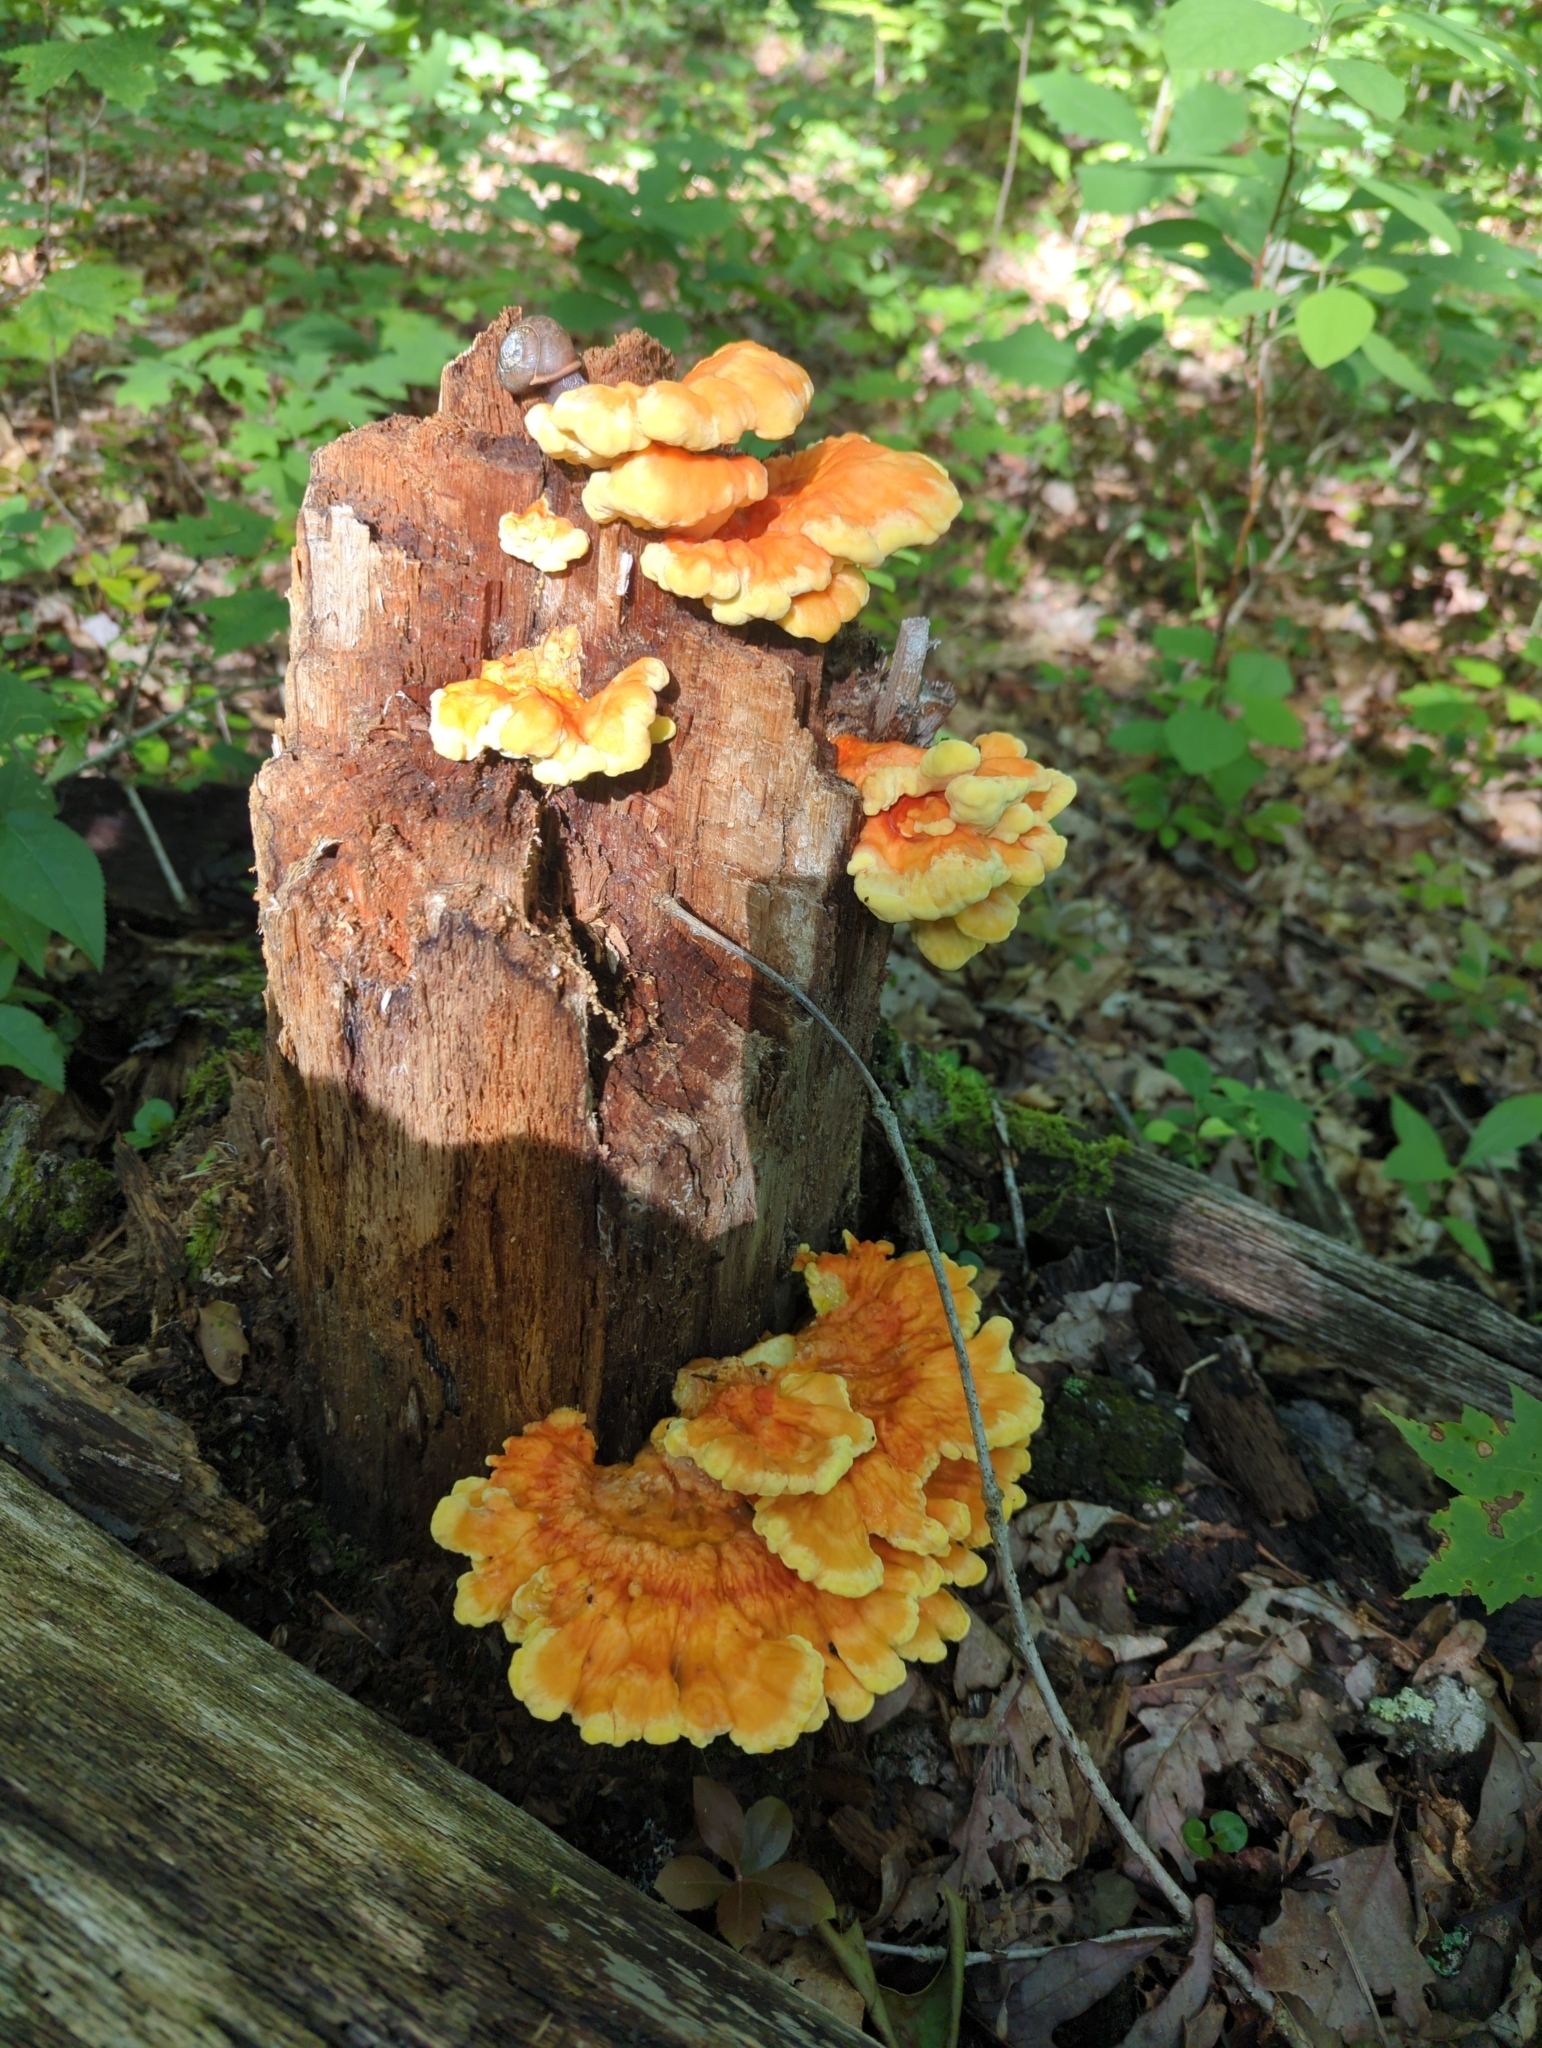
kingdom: Fungi
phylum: Basidiomycota
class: Agaricomycetes
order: Polyporales
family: Laetiporaceae
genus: Laetiporus
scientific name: Laetiporus sulphureus
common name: Chicken of the woods
